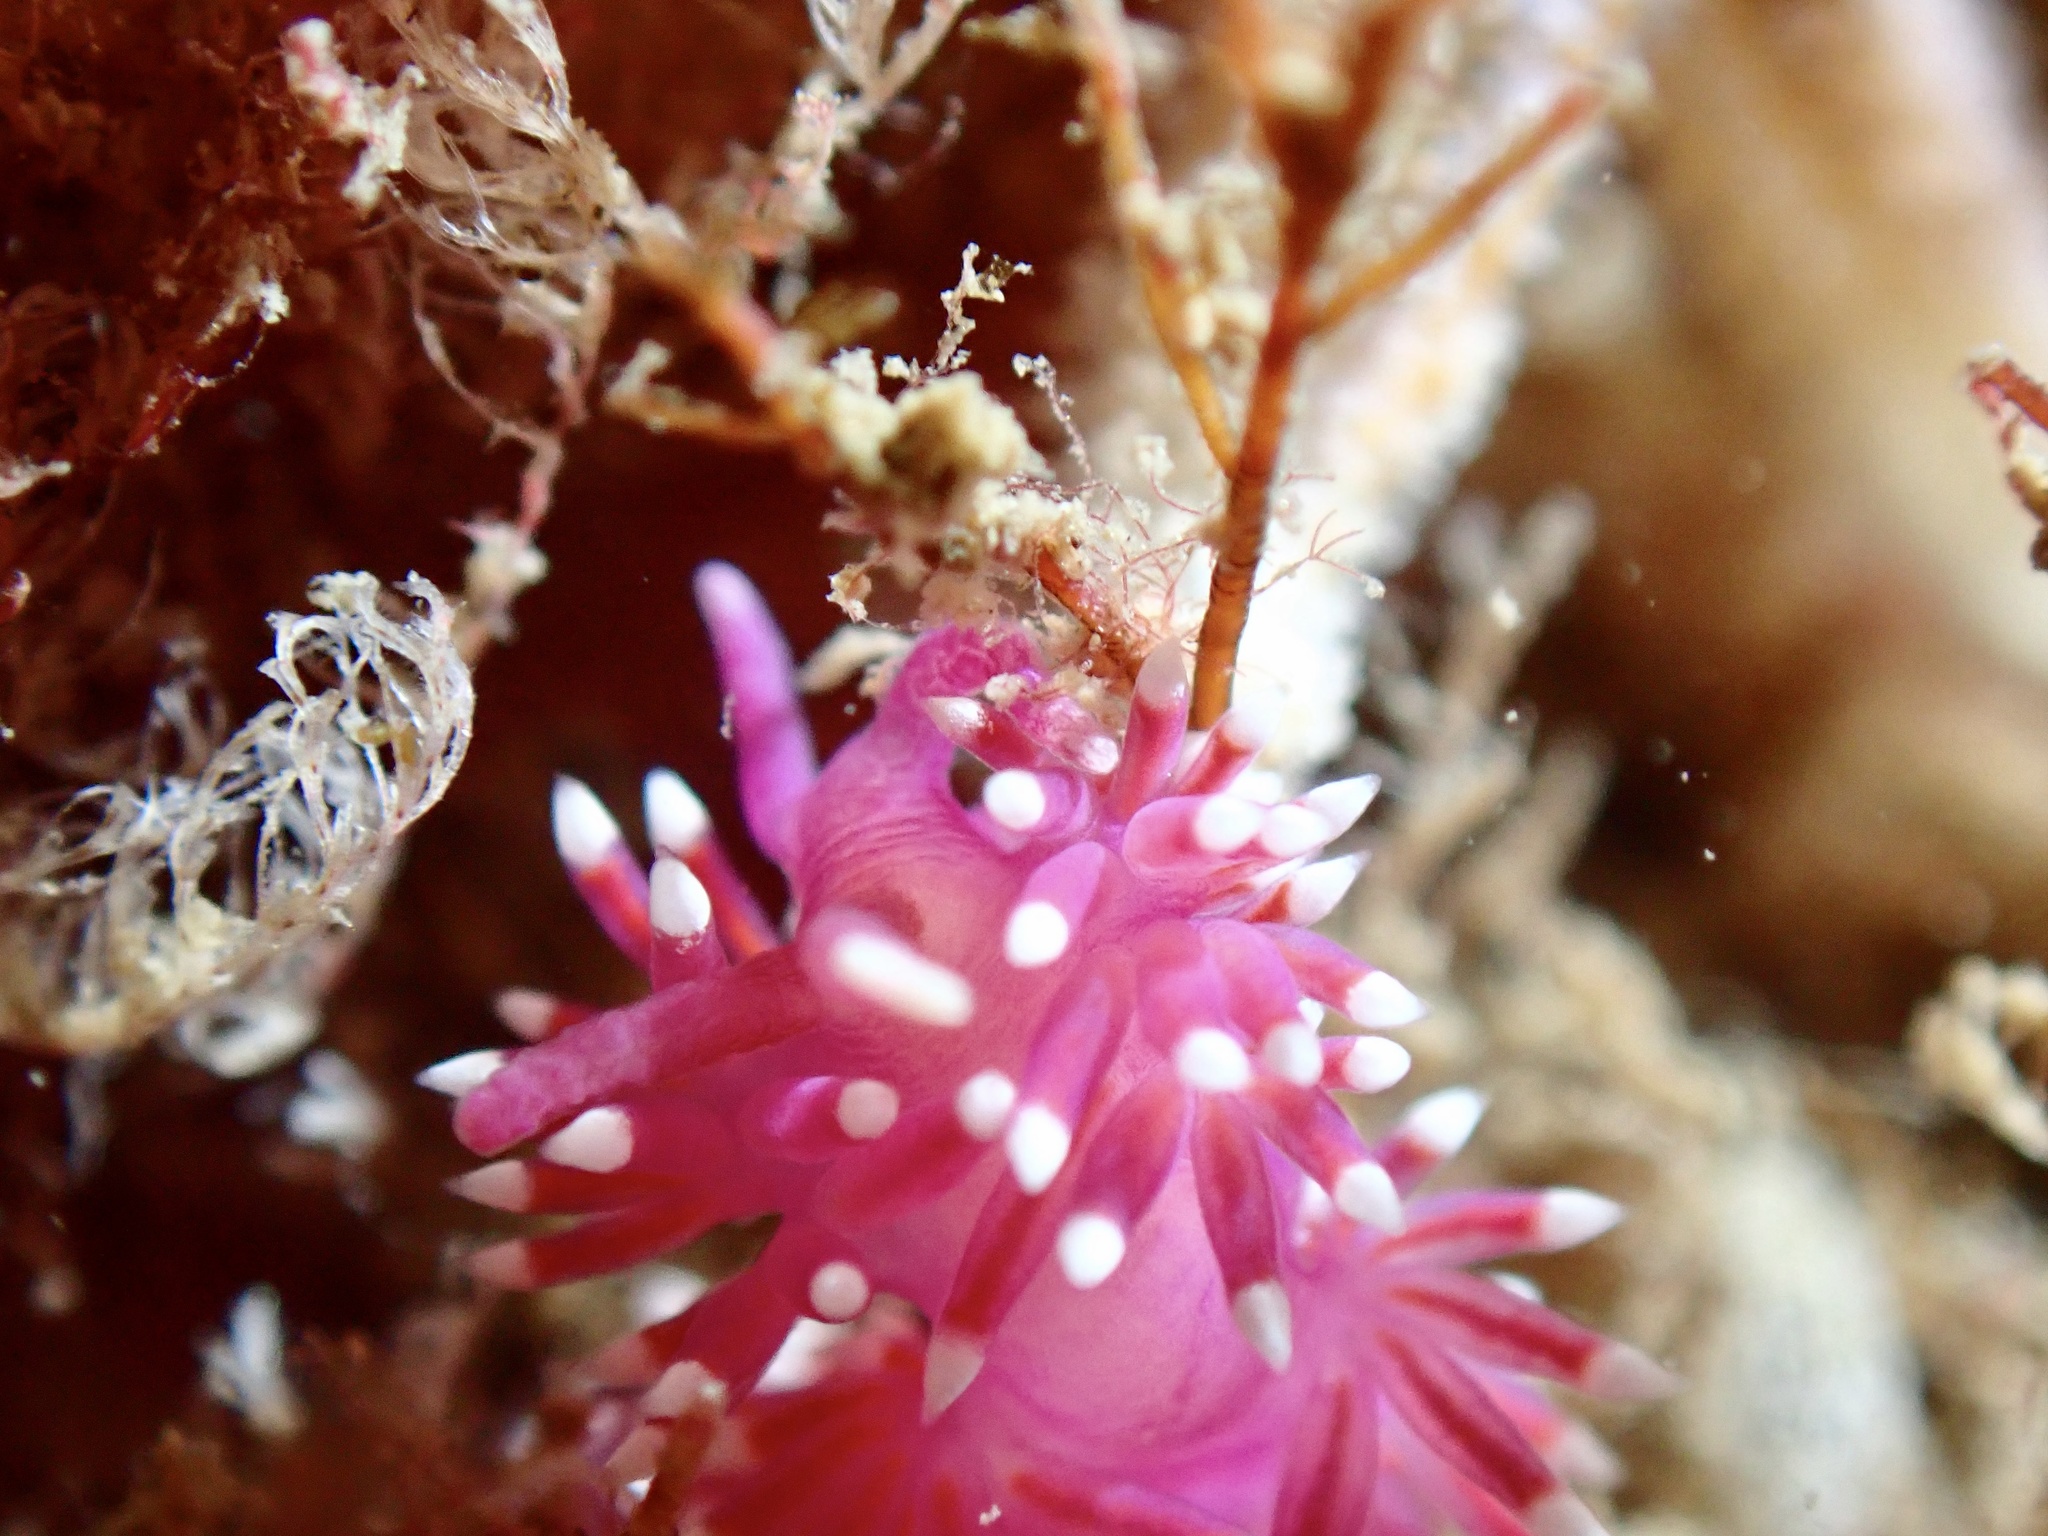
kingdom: Animalia
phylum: Mollusca
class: Gastropoda
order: Nudibranchia
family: Flabellinidae
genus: Edmundsella
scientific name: Edmundsella pedata
